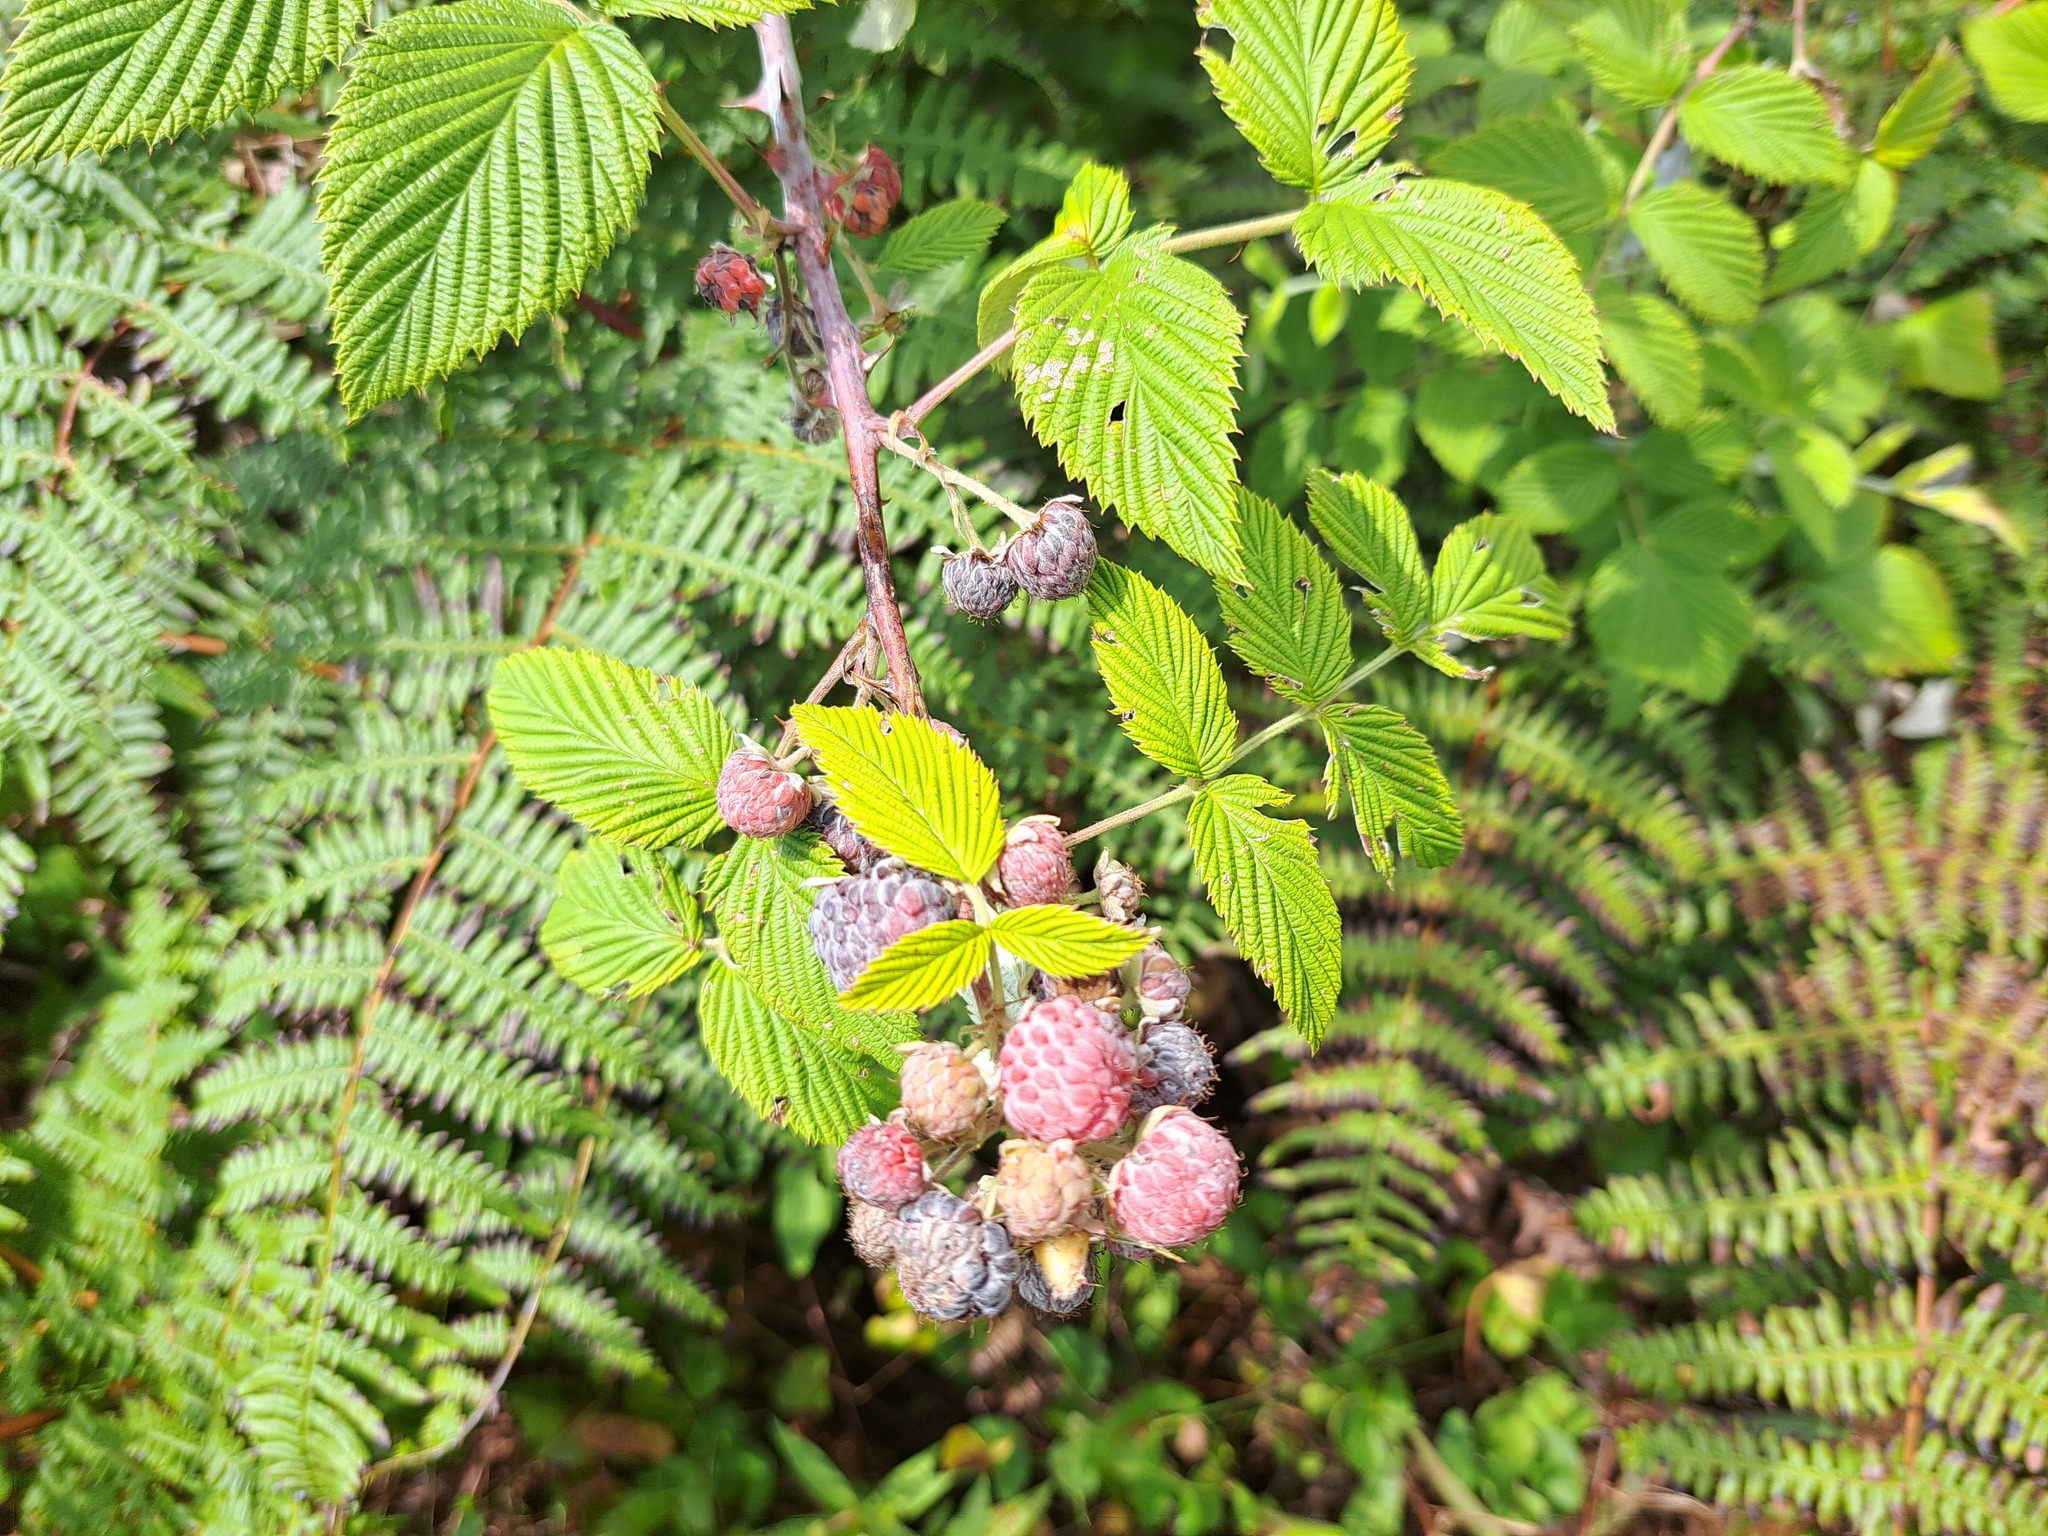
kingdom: Plantae
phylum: Tracheophyta
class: Magnoliopsida
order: Rosales
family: Rosaceae
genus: Rubus
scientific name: Rubus niveus
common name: Snowpeaks raspberry
